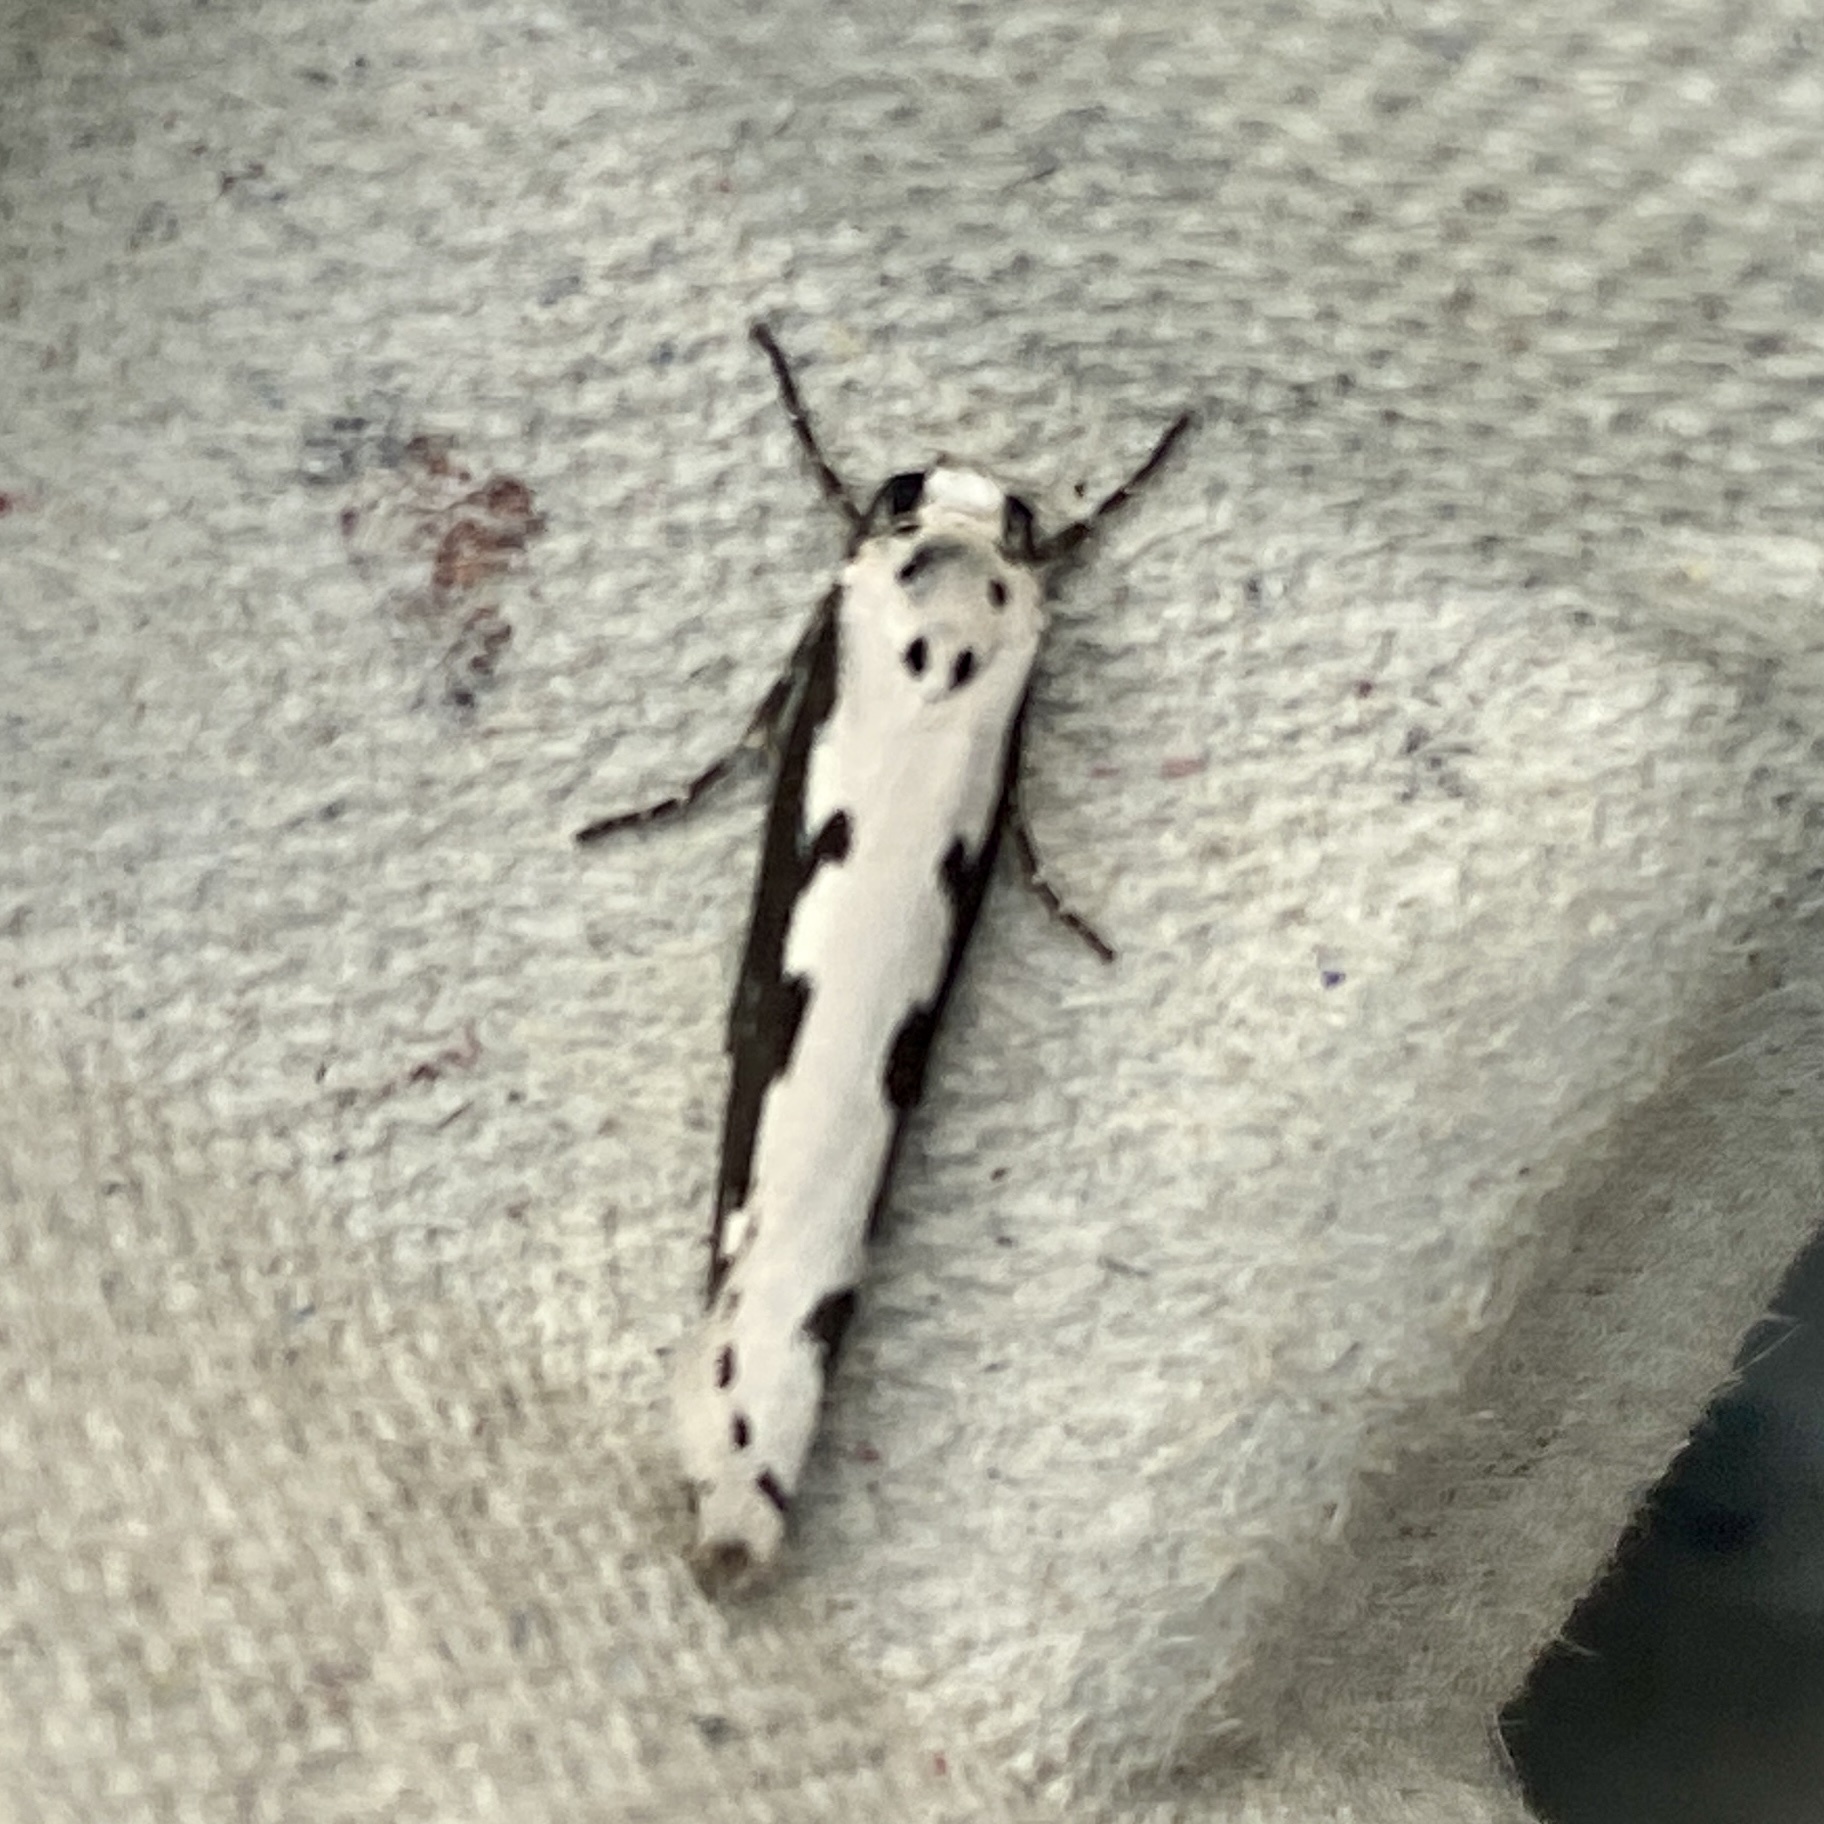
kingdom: Animalia
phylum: Arthropoda
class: Insecta
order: Lepidoptera
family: Ethmiidae
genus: Ethmia
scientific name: Ethmia bipunctella
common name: Bordered ermel
